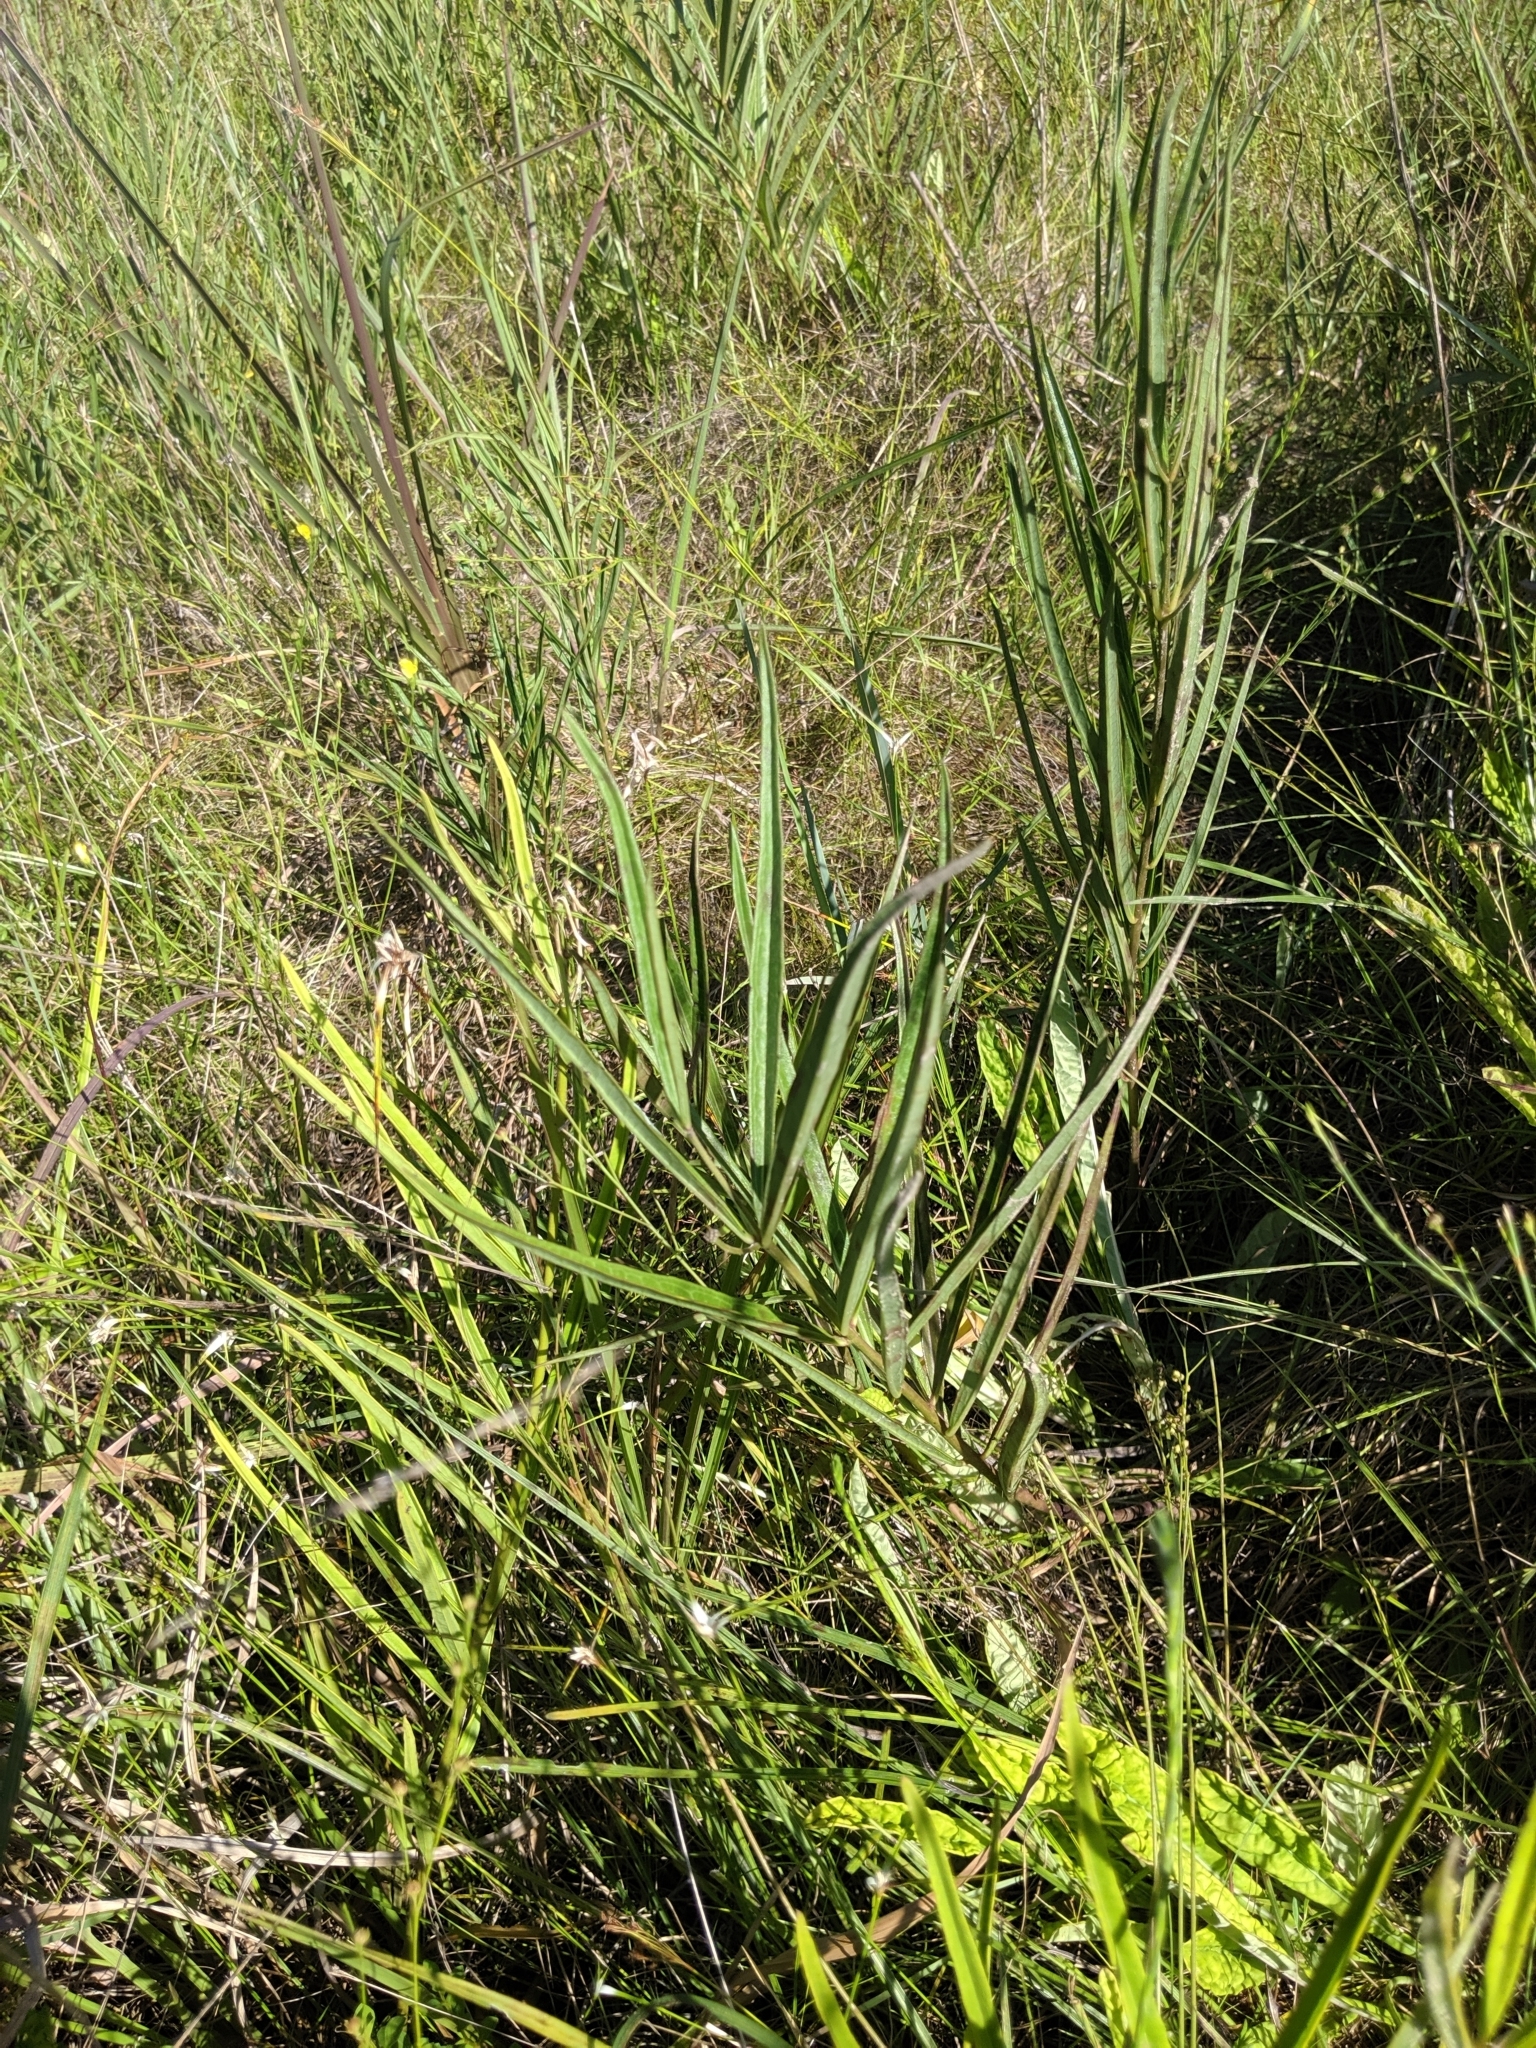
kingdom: Plantae
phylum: Tracheophyta
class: Magnoliopsida
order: Gentianales
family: Apocynaceae
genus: Asclepias
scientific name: Asclepias longifolia
